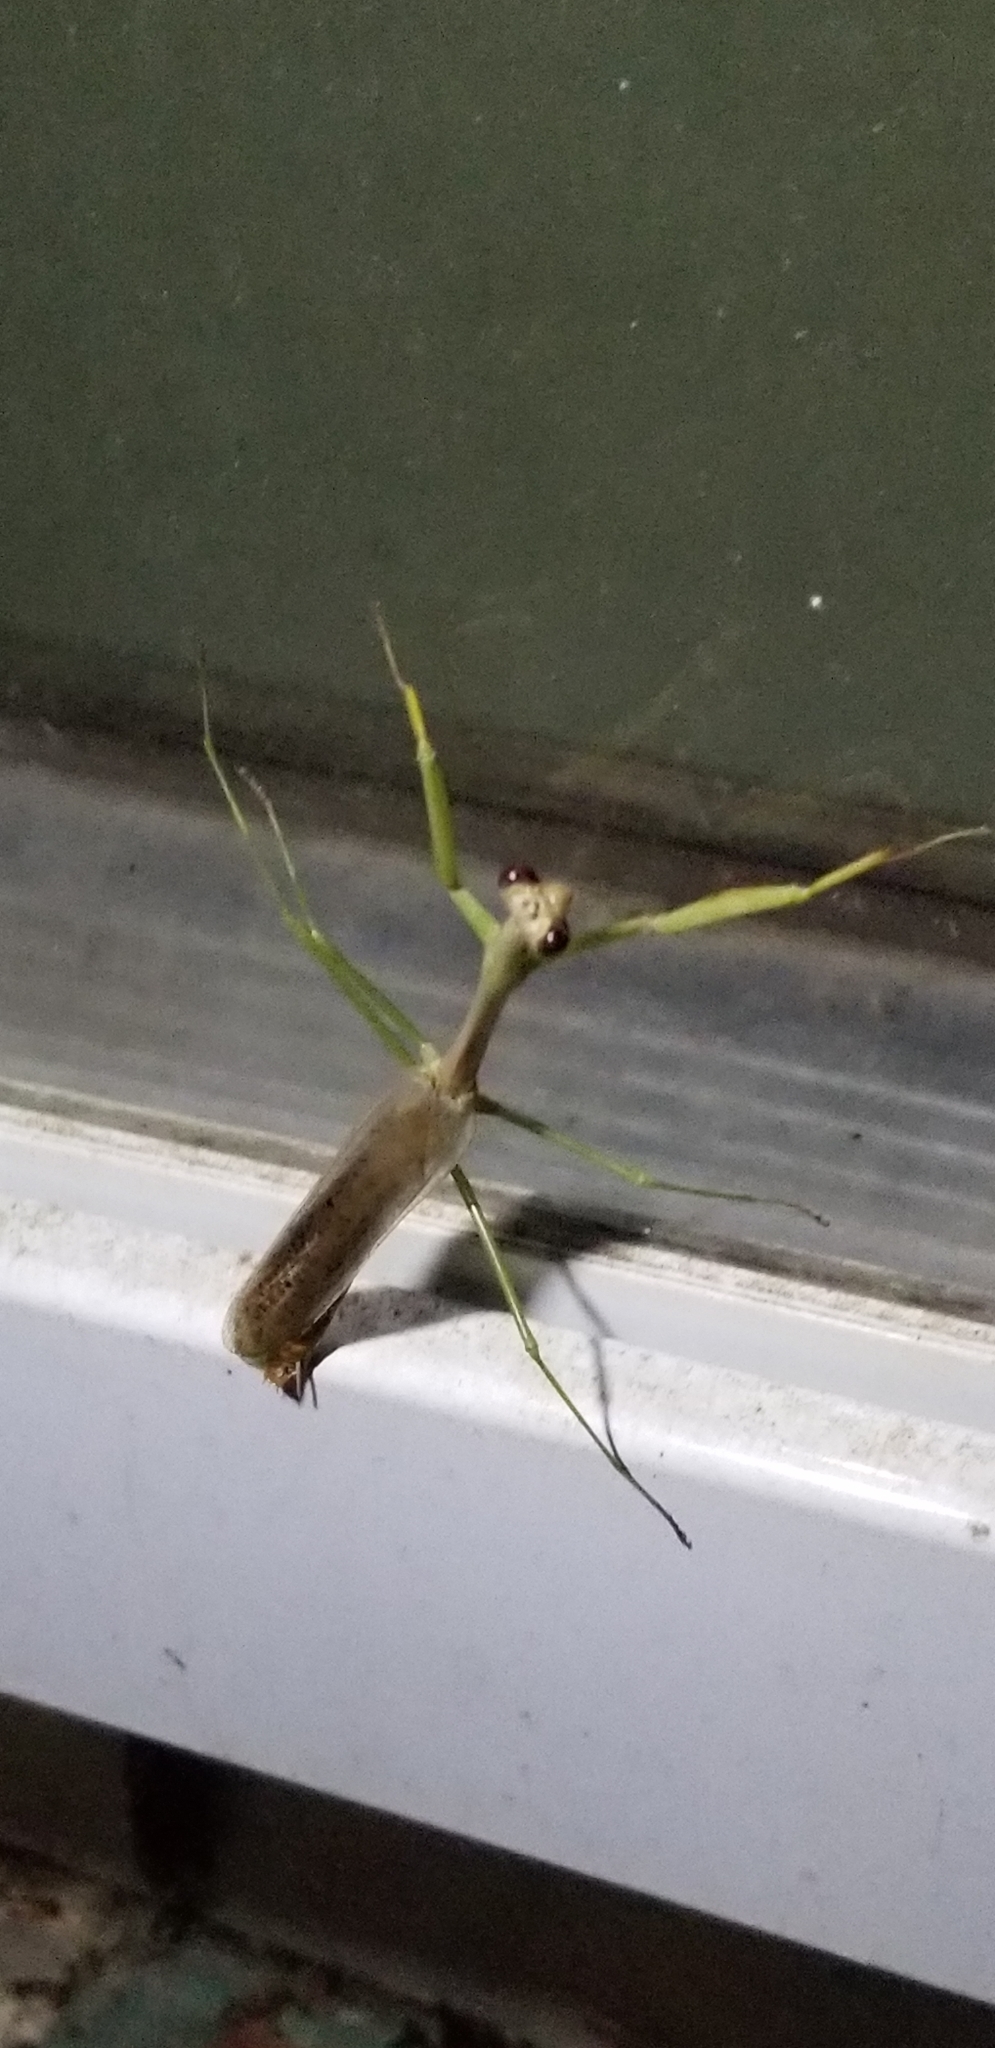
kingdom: Animalia
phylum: Arthropoda
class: Insecta
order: Mantodea
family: Mantidae
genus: Stagmomantis
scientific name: Stagmomantis carolina
